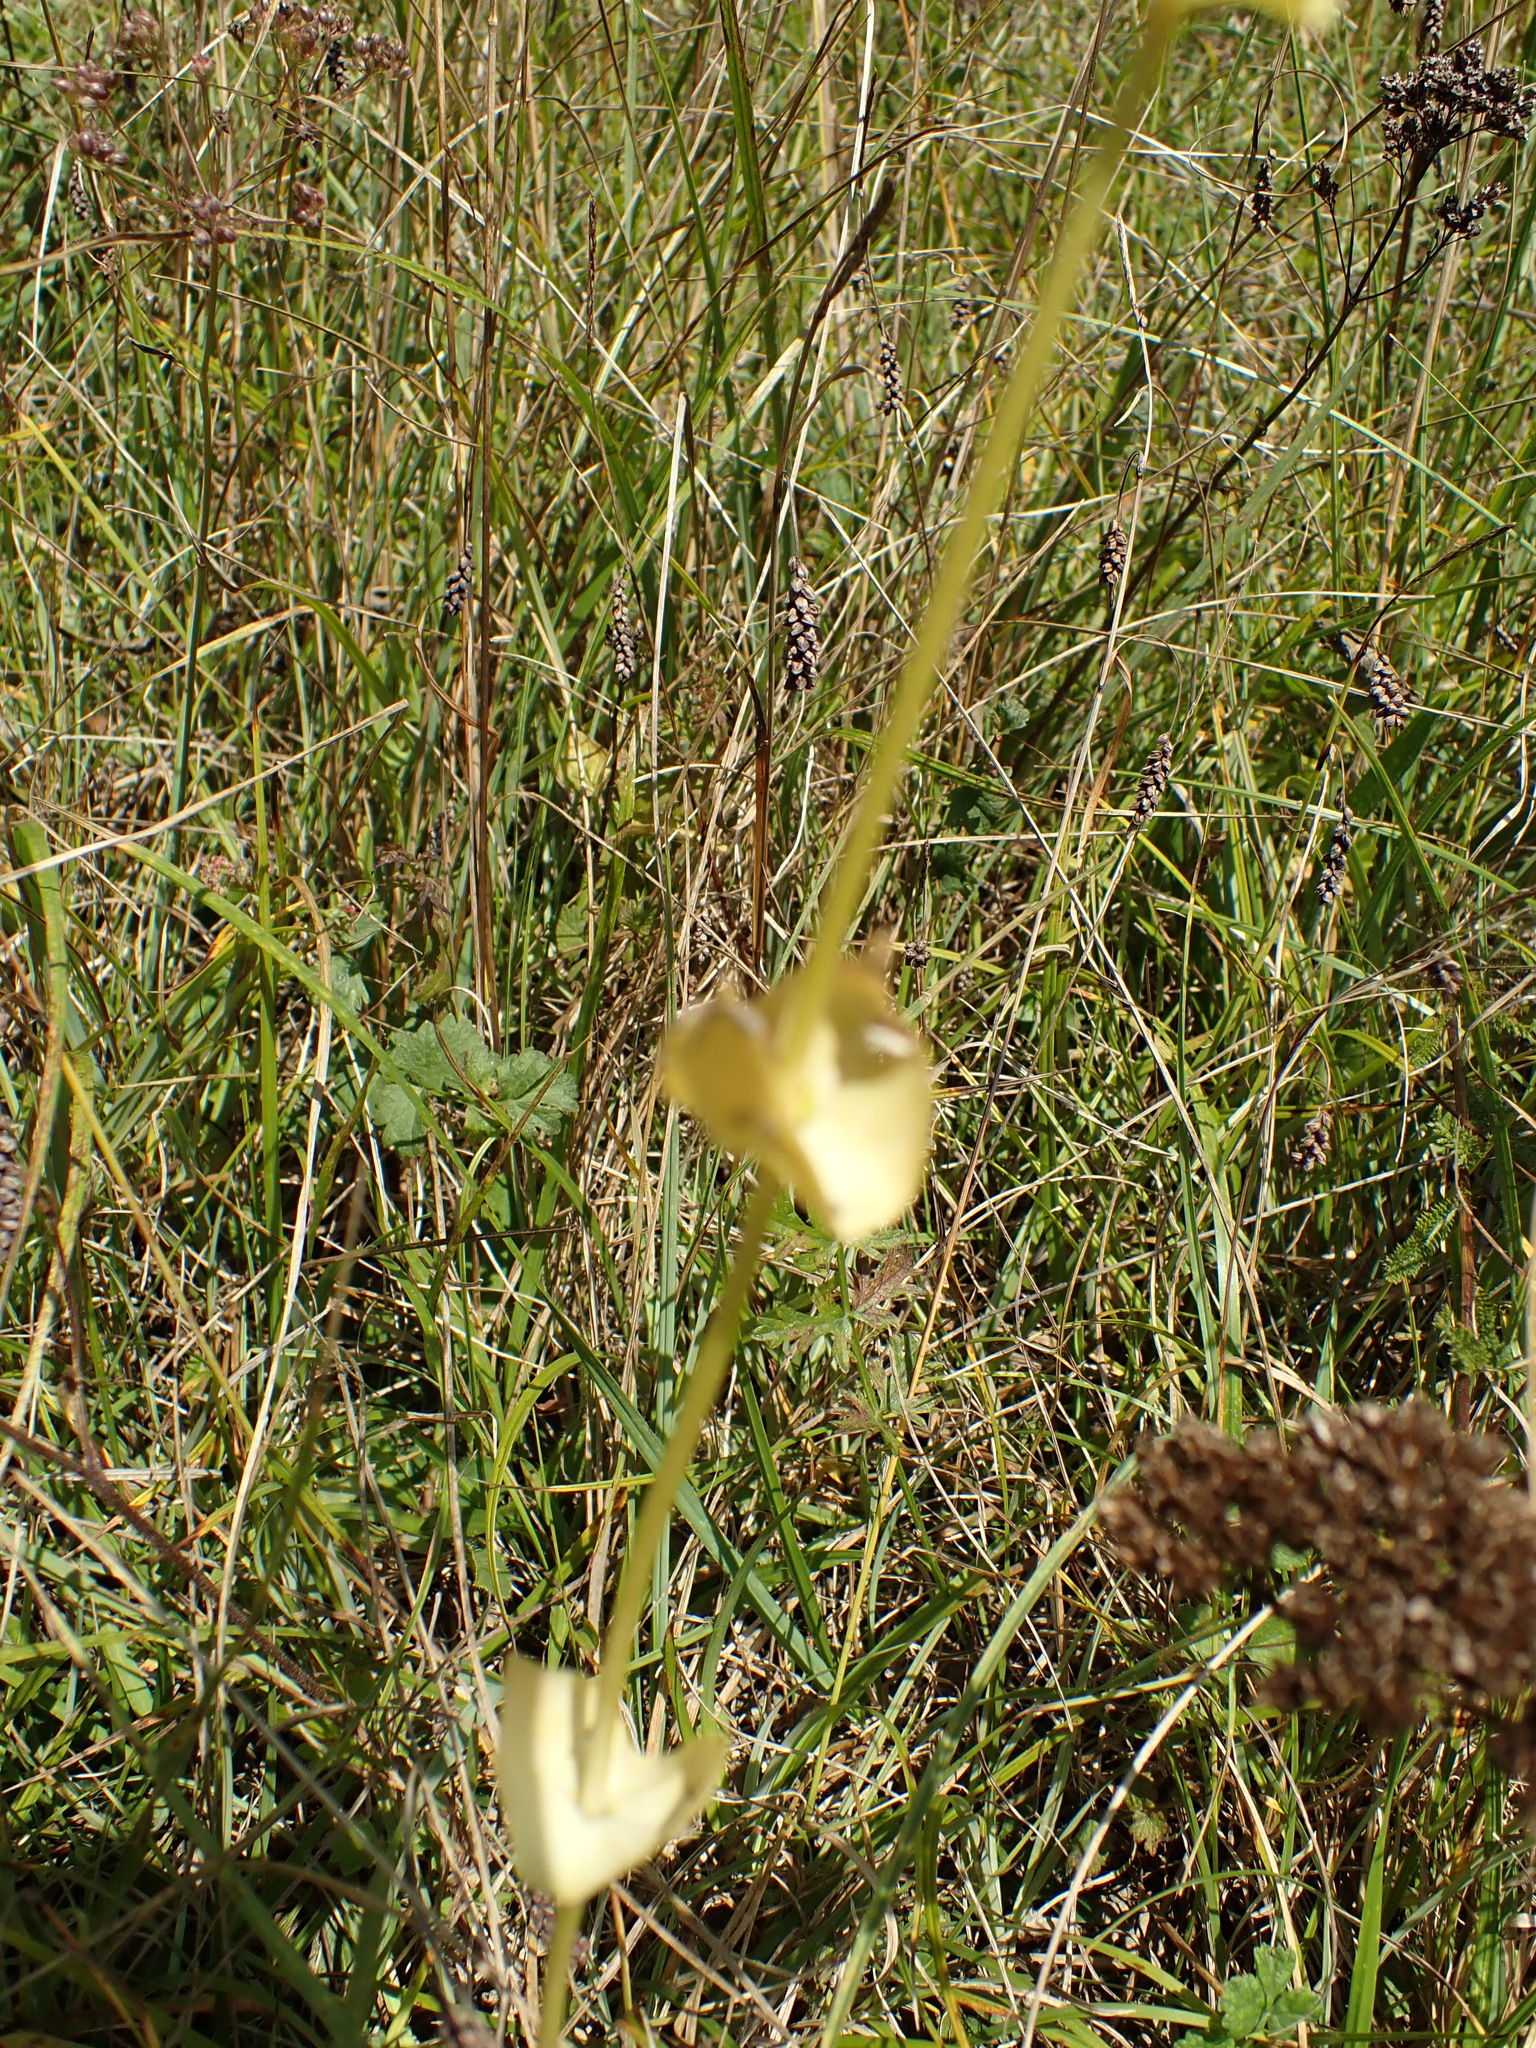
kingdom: Plantae
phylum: Tracheophyta
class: Magnoliopsida
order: Gentianales
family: Gentianaceae
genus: Blackstonia
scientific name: Blackstonia perfoliata
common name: Yellow-wort
